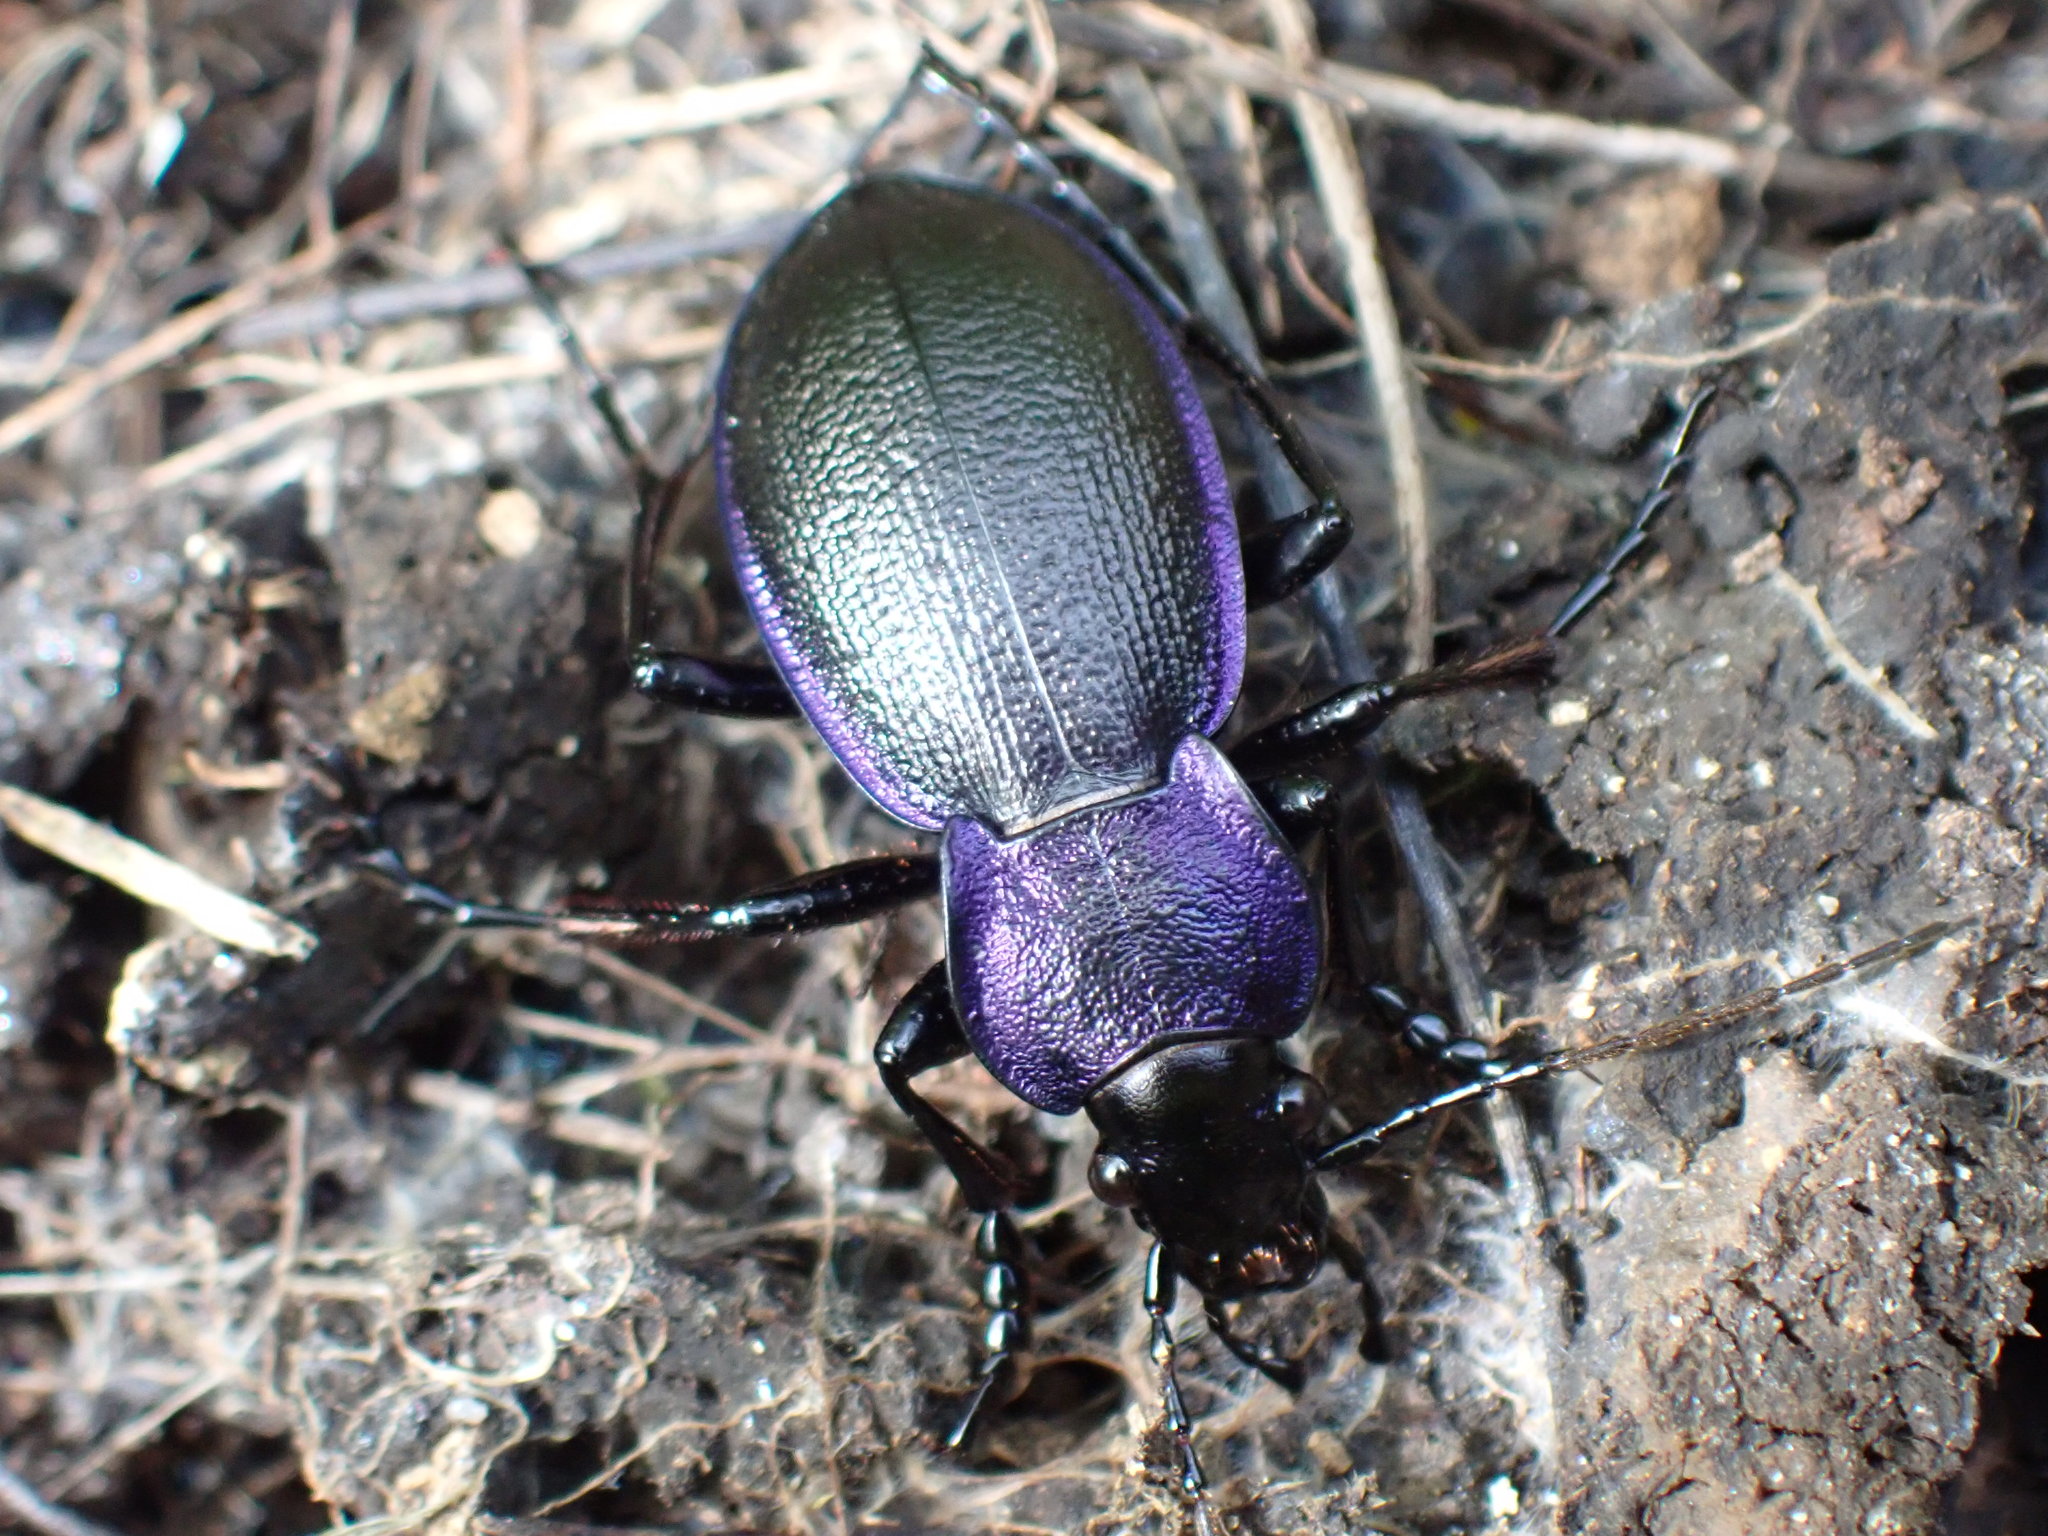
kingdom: Animalia
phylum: Arthropoda
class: Insecta
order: Coleoptera
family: Carabidae
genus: Carabus
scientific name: Carabus problematicus
